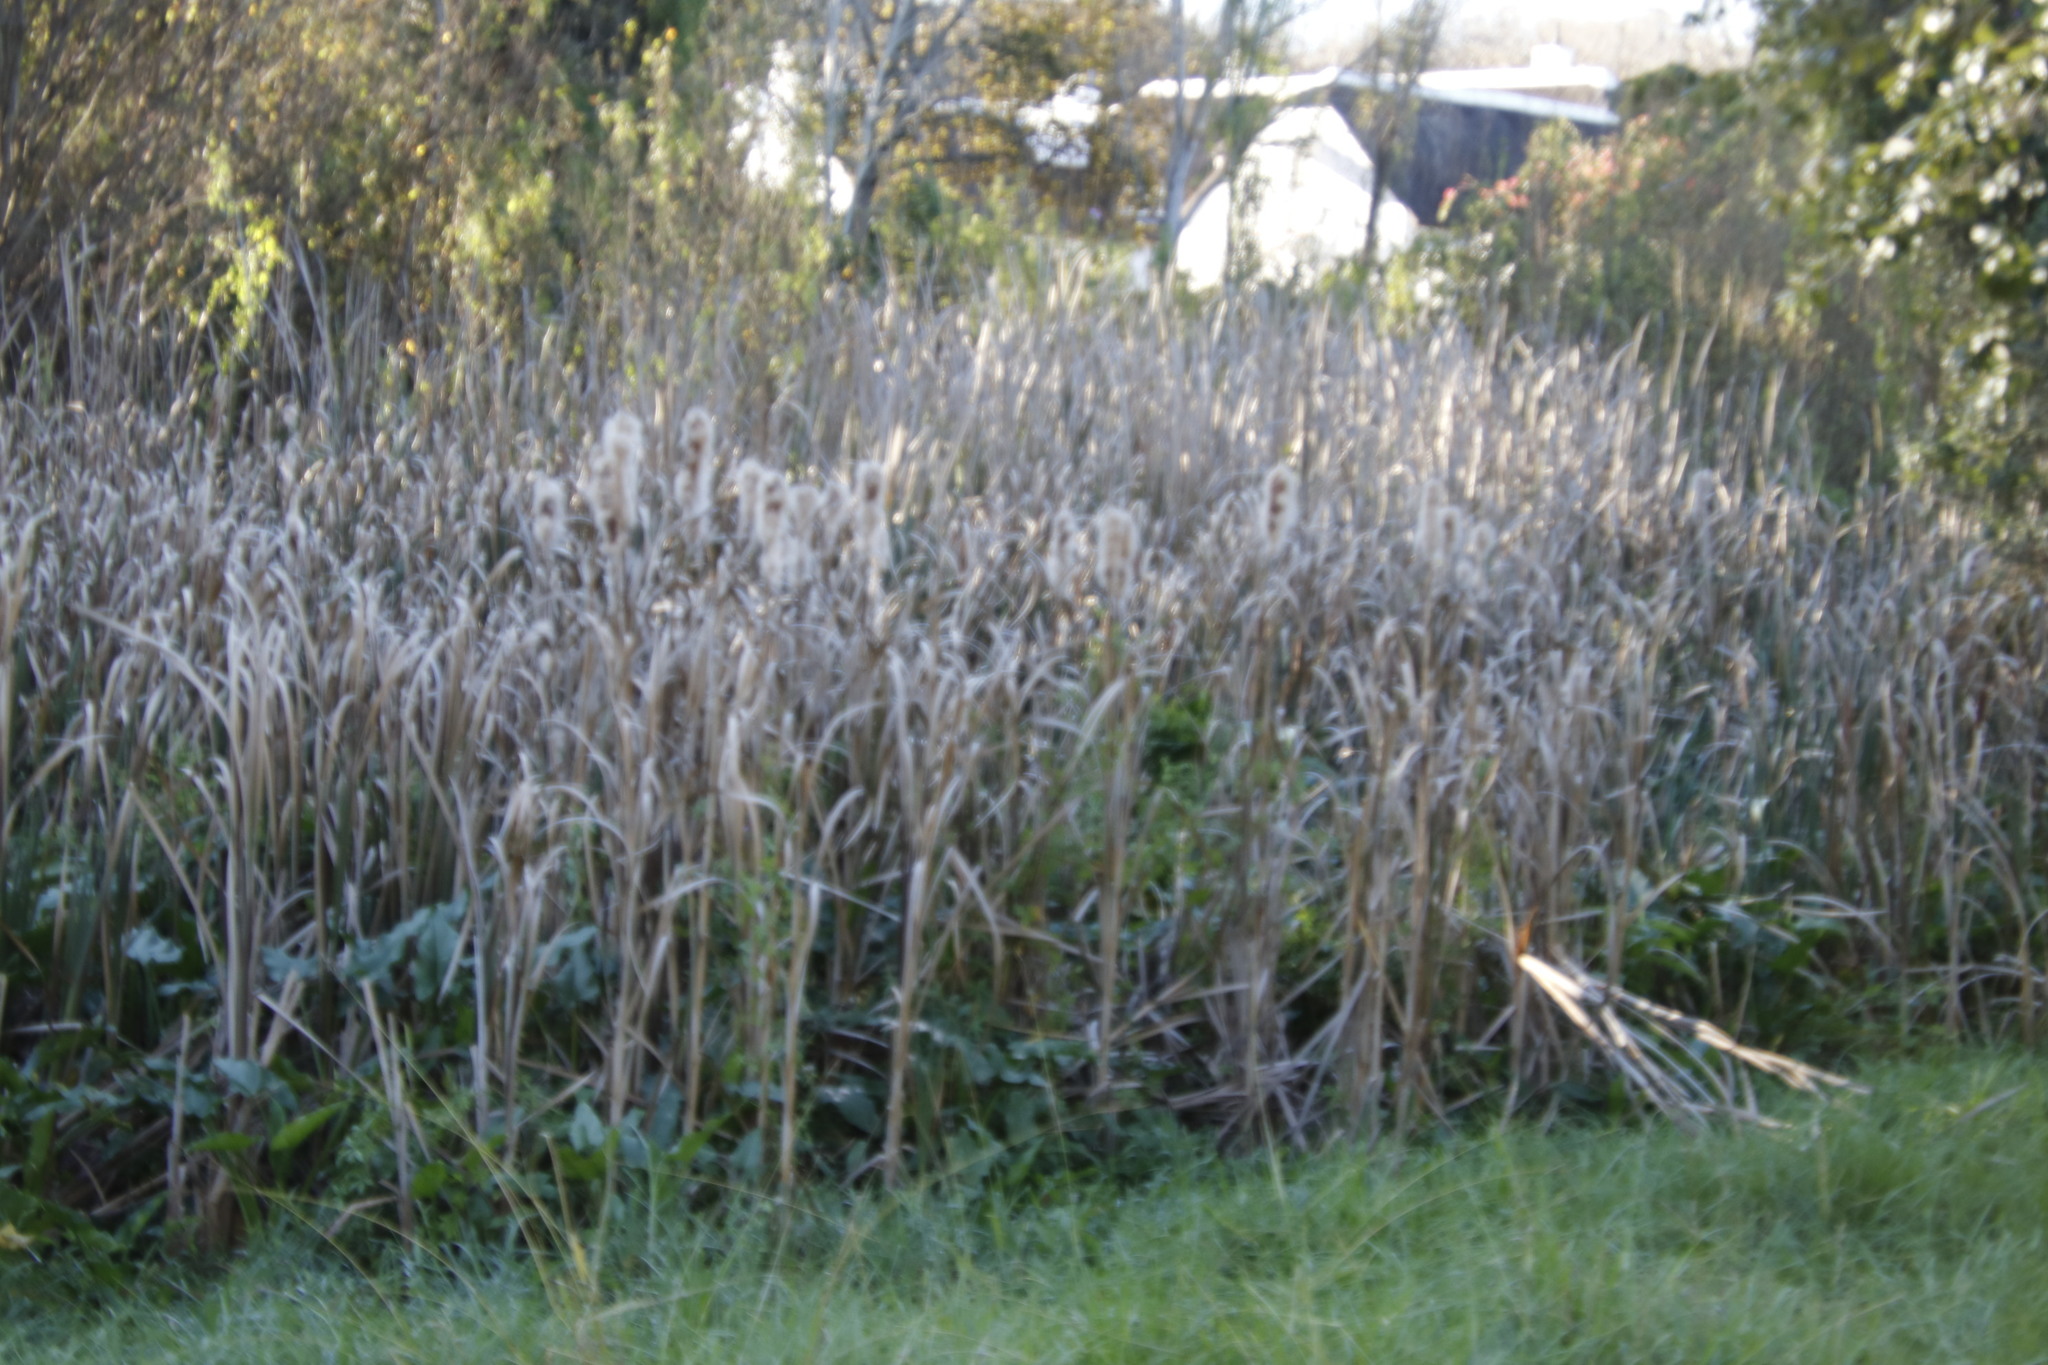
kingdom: Plantae
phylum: Tracheophyta
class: Liliopsida
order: Poales
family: Typhaceae
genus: Typha
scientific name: Typha capensis
